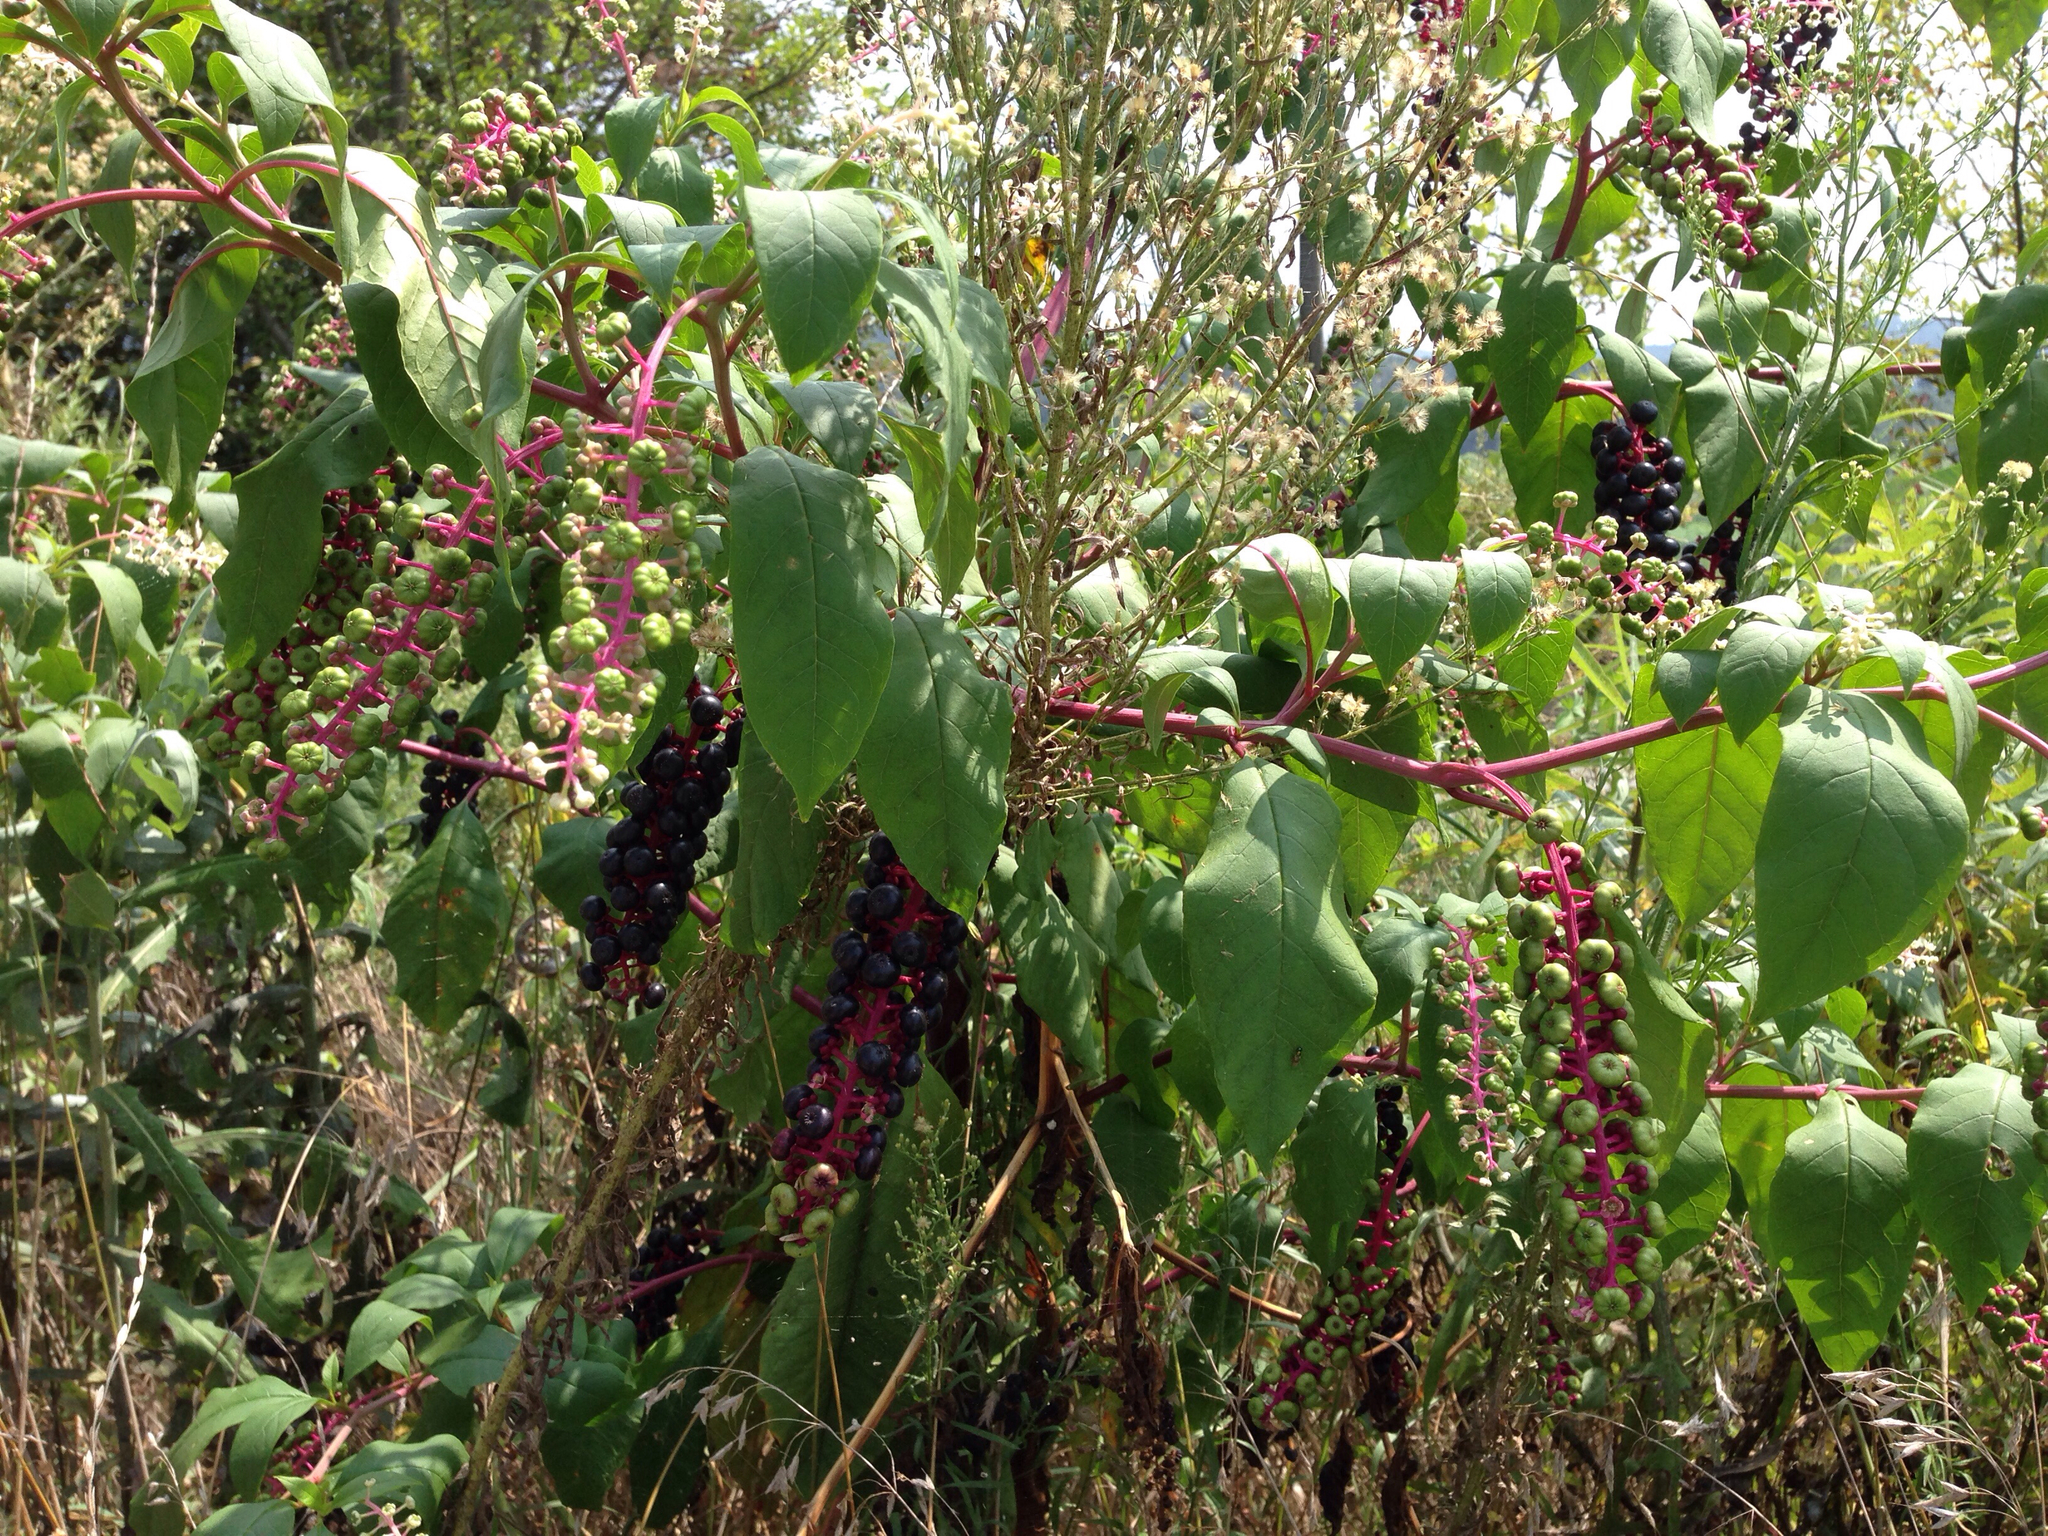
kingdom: Plantae
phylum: Tracheophyta
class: Magnoliopsida
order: Caryophyllales
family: Phytolaccaceae
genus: Phytolacca
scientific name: Phytolacca americana
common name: American pokeweed
